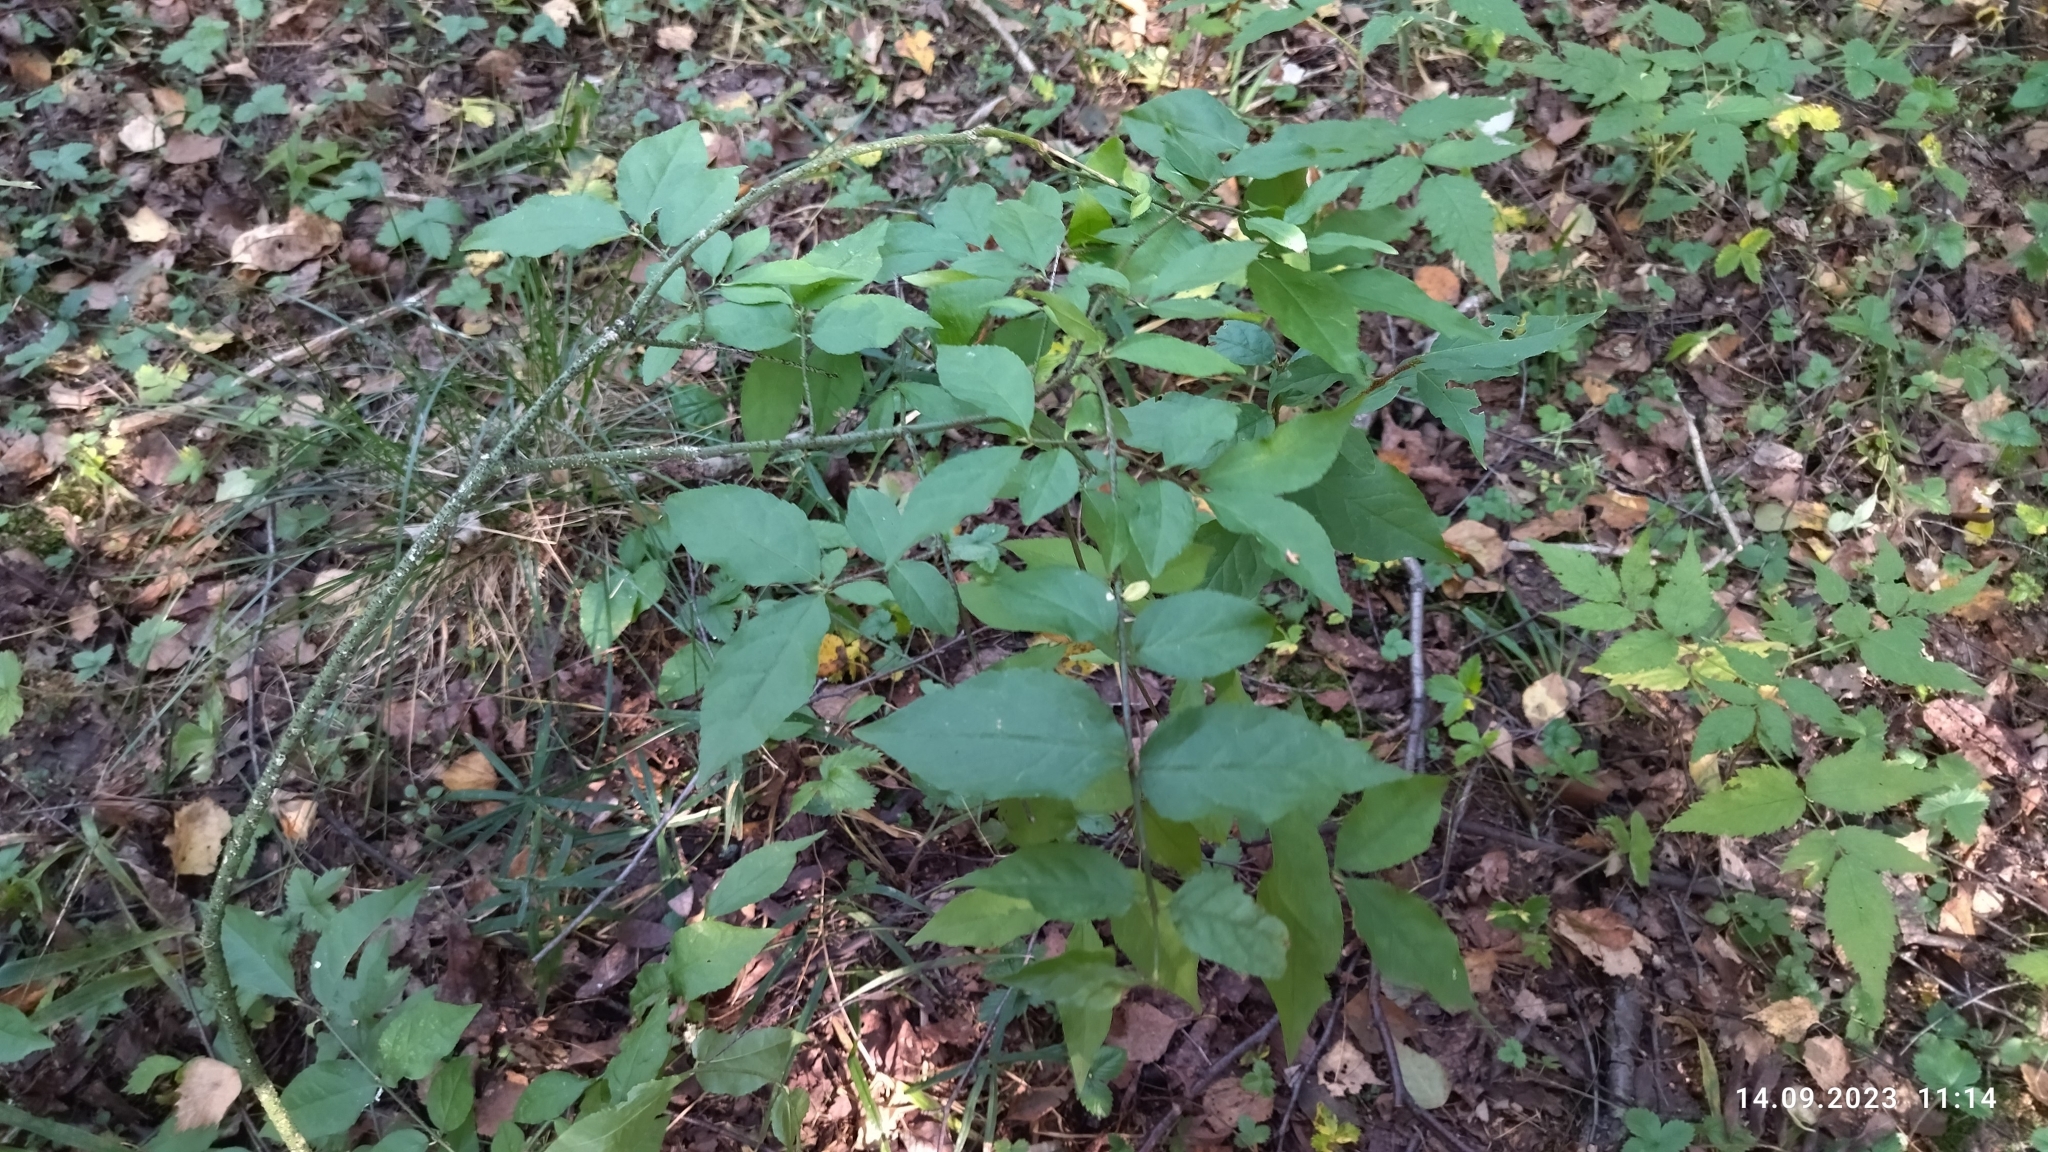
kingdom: Plantae
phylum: Tracheophyta
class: Magnoliopsida
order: Celastrales
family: Celastraceae
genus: Euonymus
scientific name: Euonymus verrucosus
